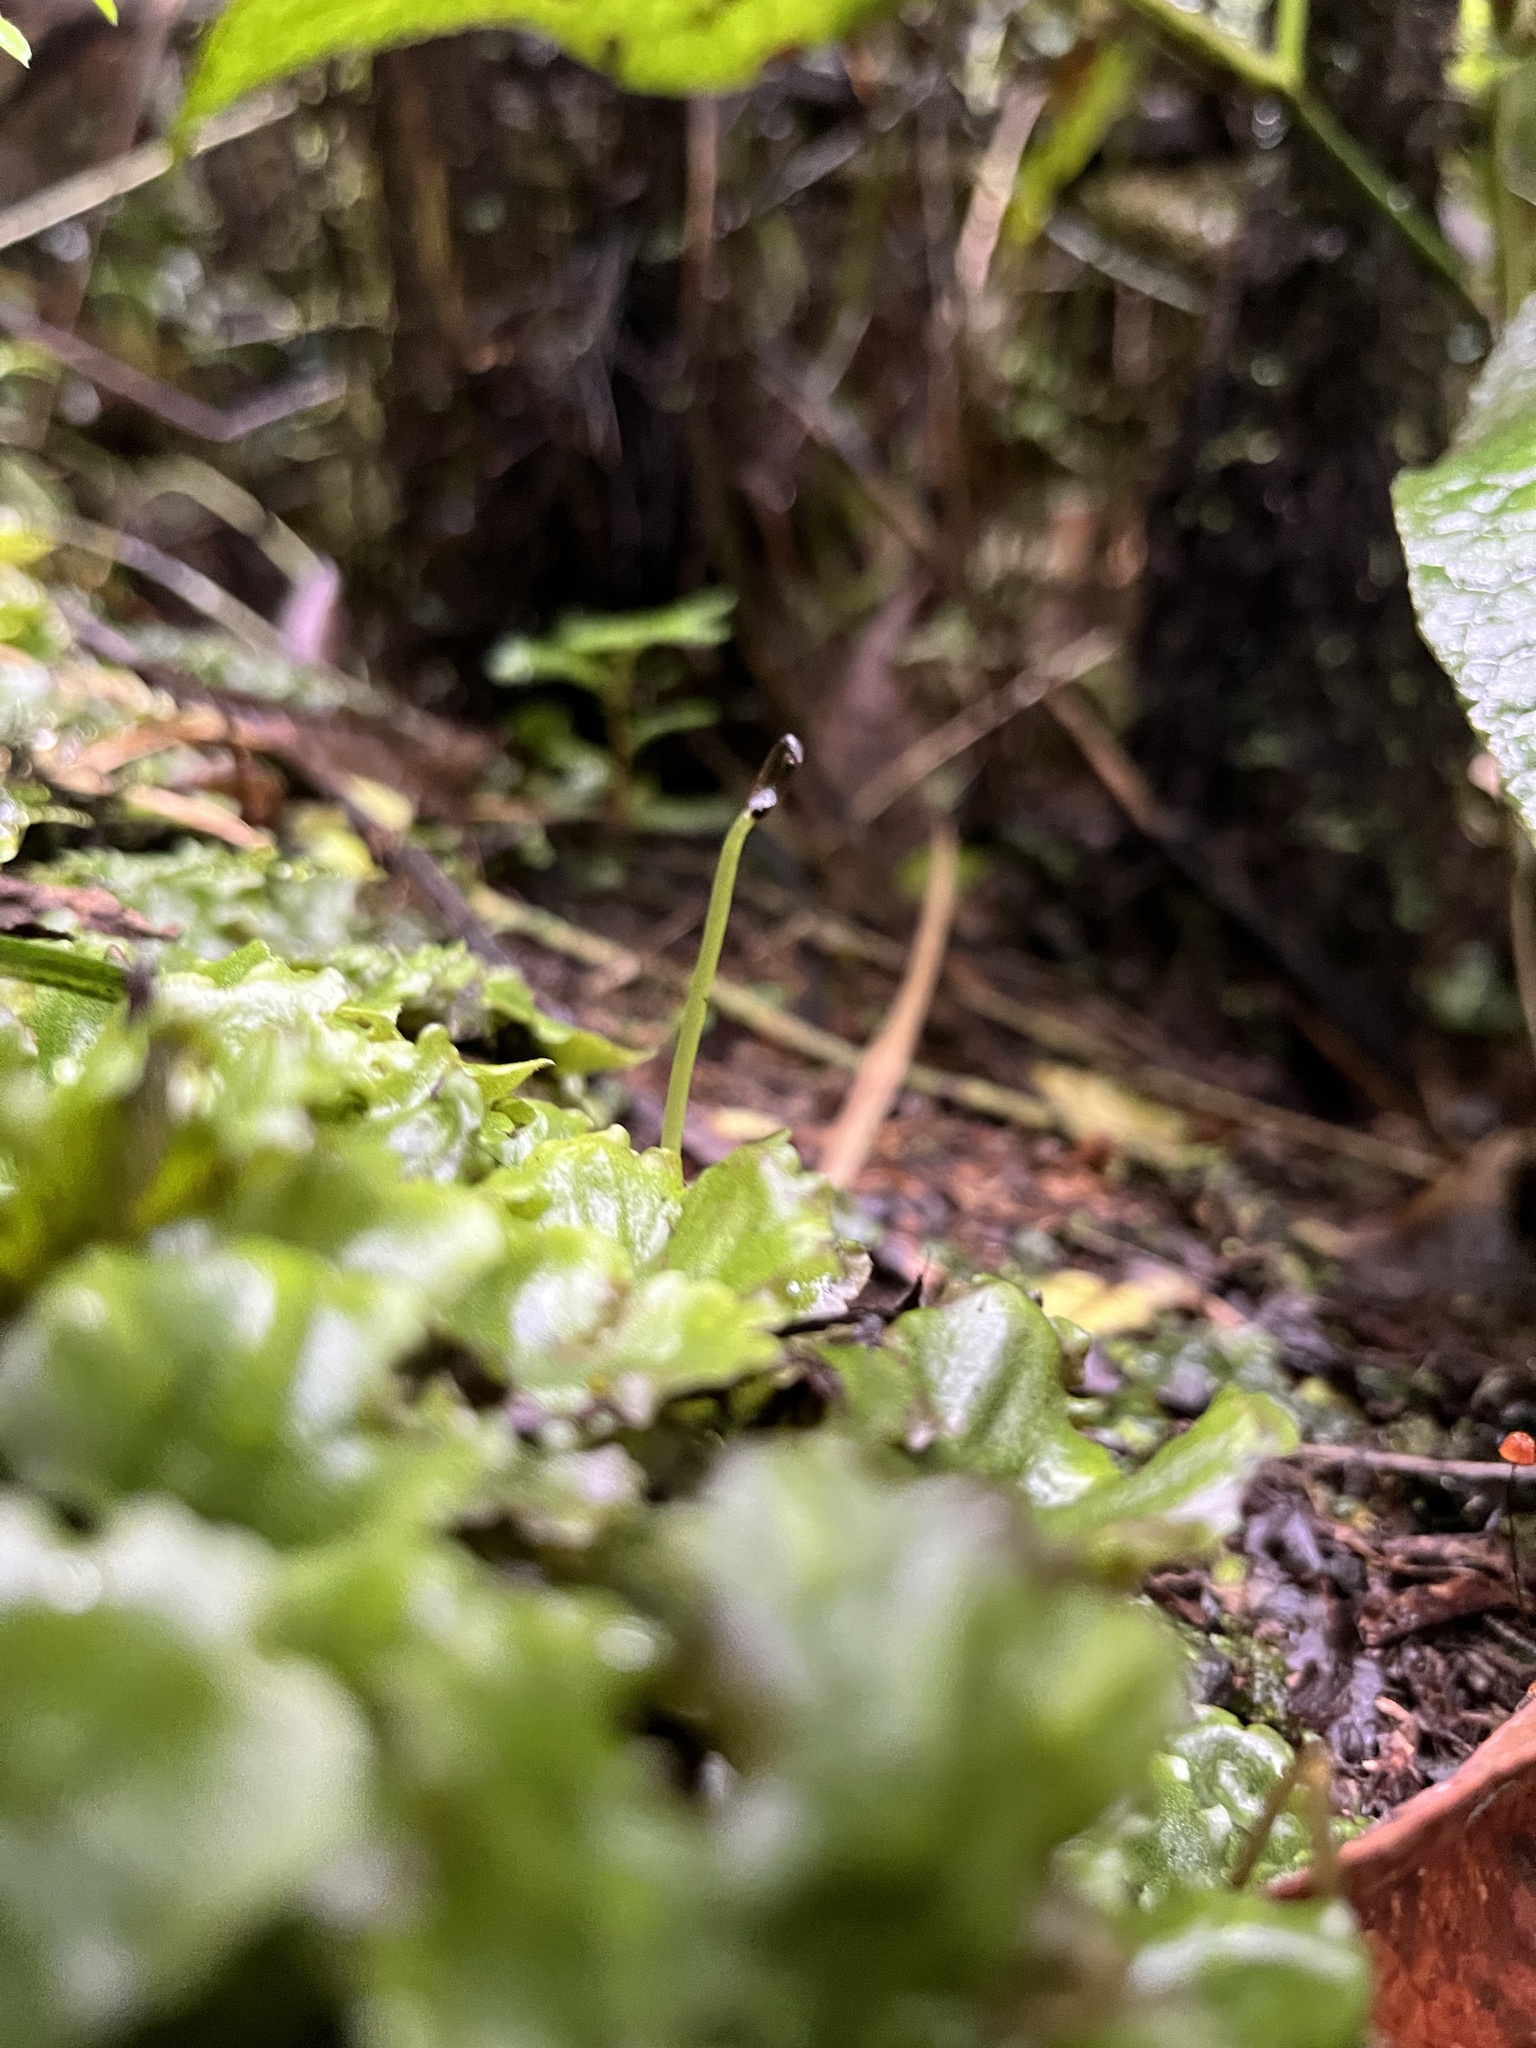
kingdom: Plantae
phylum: Marchantiophyta
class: Marchantiopsida
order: Marchantiales
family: Monocleaceae
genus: Monoclea
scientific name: Monoclea gottschei
